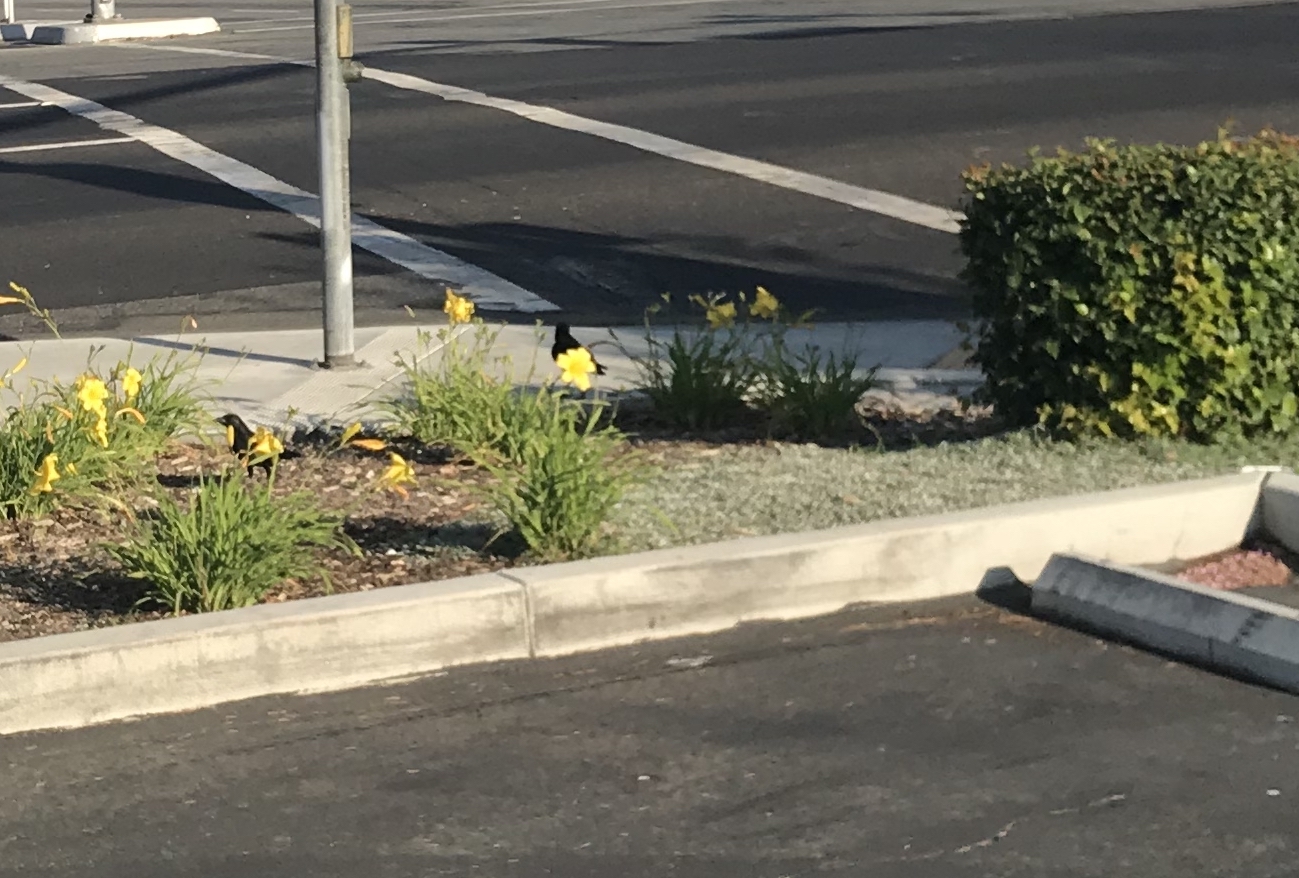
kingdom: Animalia
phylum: Chordata
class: Aves
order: Passeriformes
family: Corvidae
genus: Corvus
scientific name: Corvus brachyrhynchos
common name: American crow
